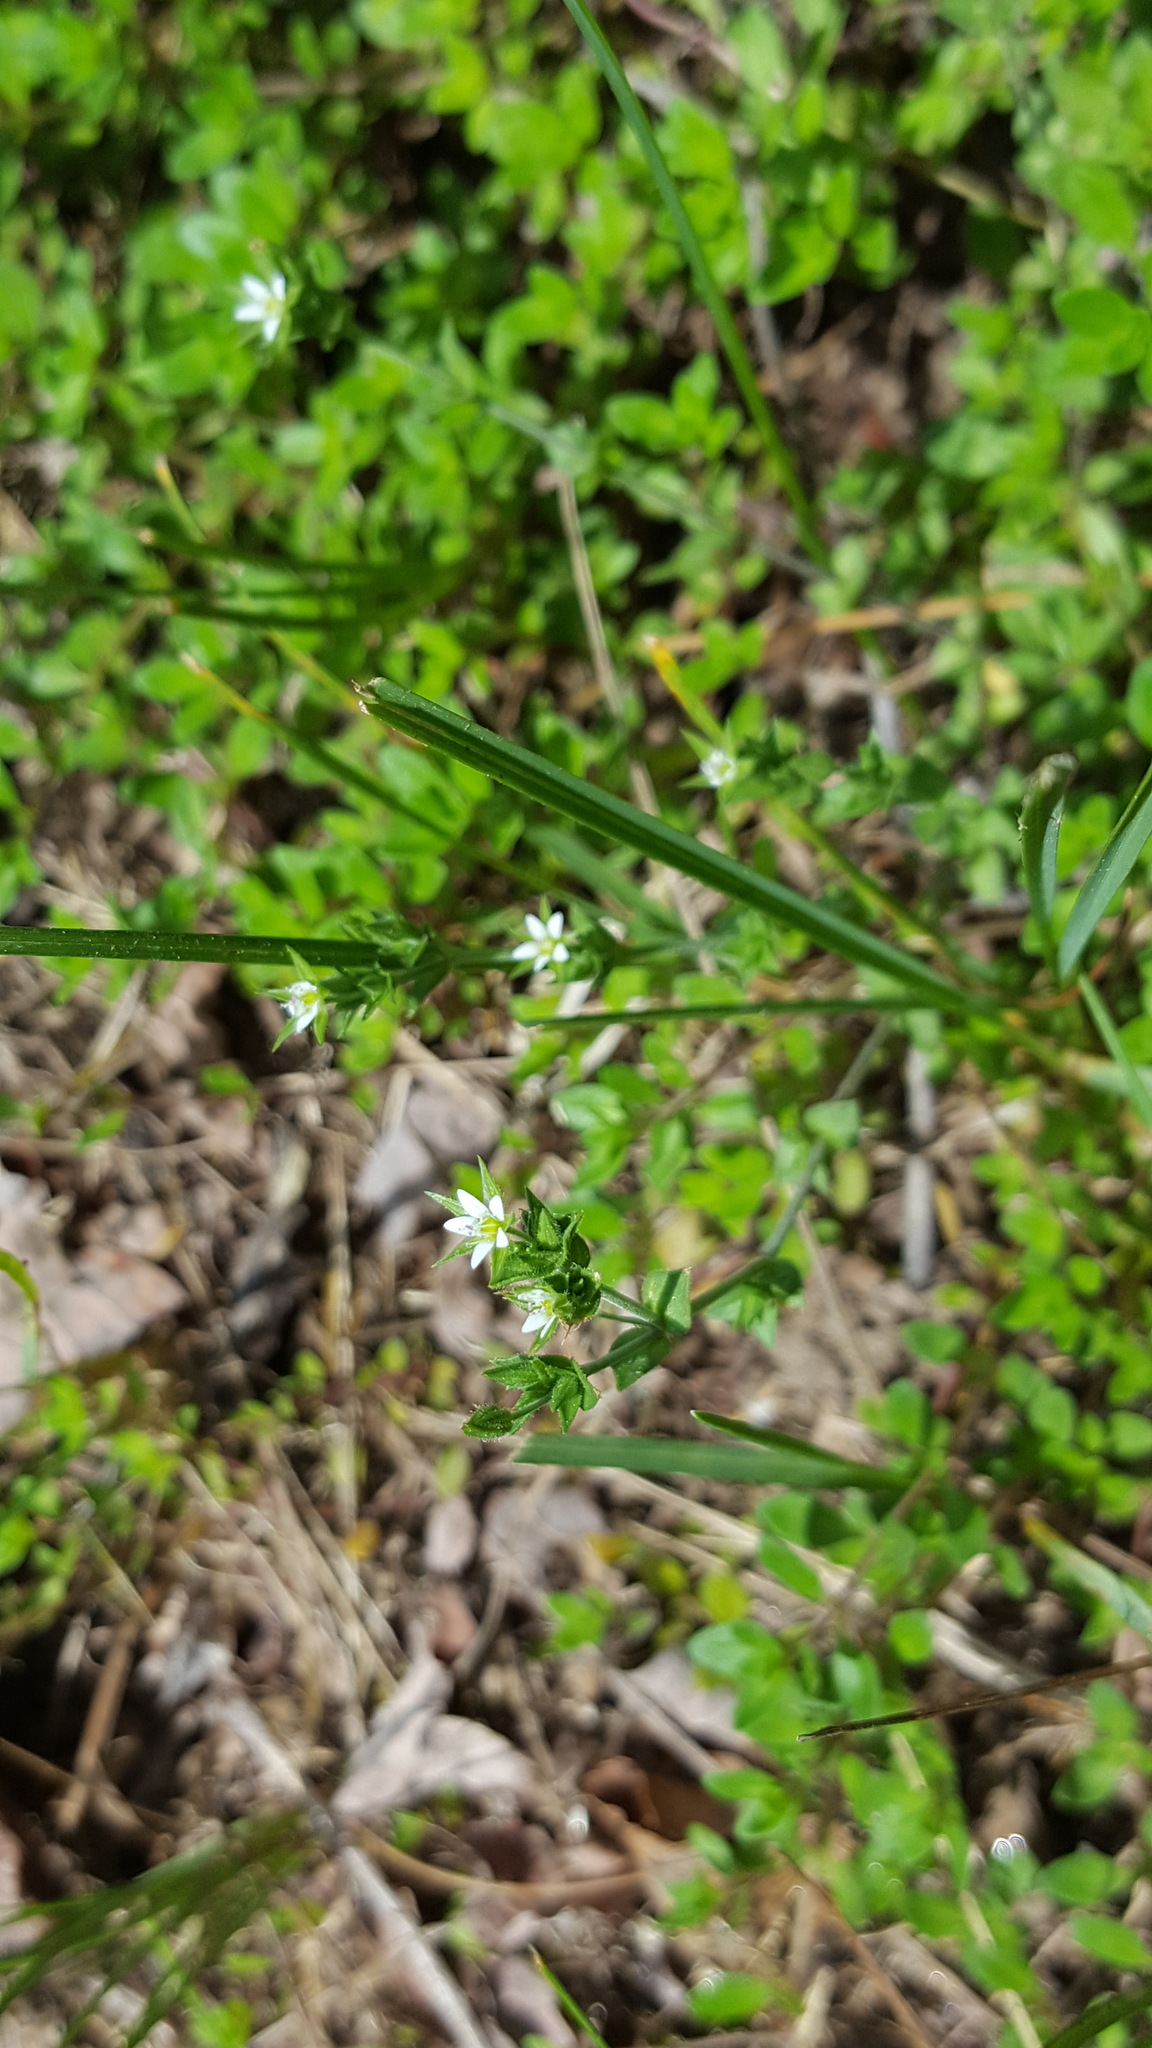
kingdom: Plantae
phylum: Tracheophyta
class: Magnoliopsida
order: Caryophyllales
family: Caryophyllaceae
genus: Arenaria
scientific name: Arenaria serpyllifolia
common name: Thyme-leaved sandwort
